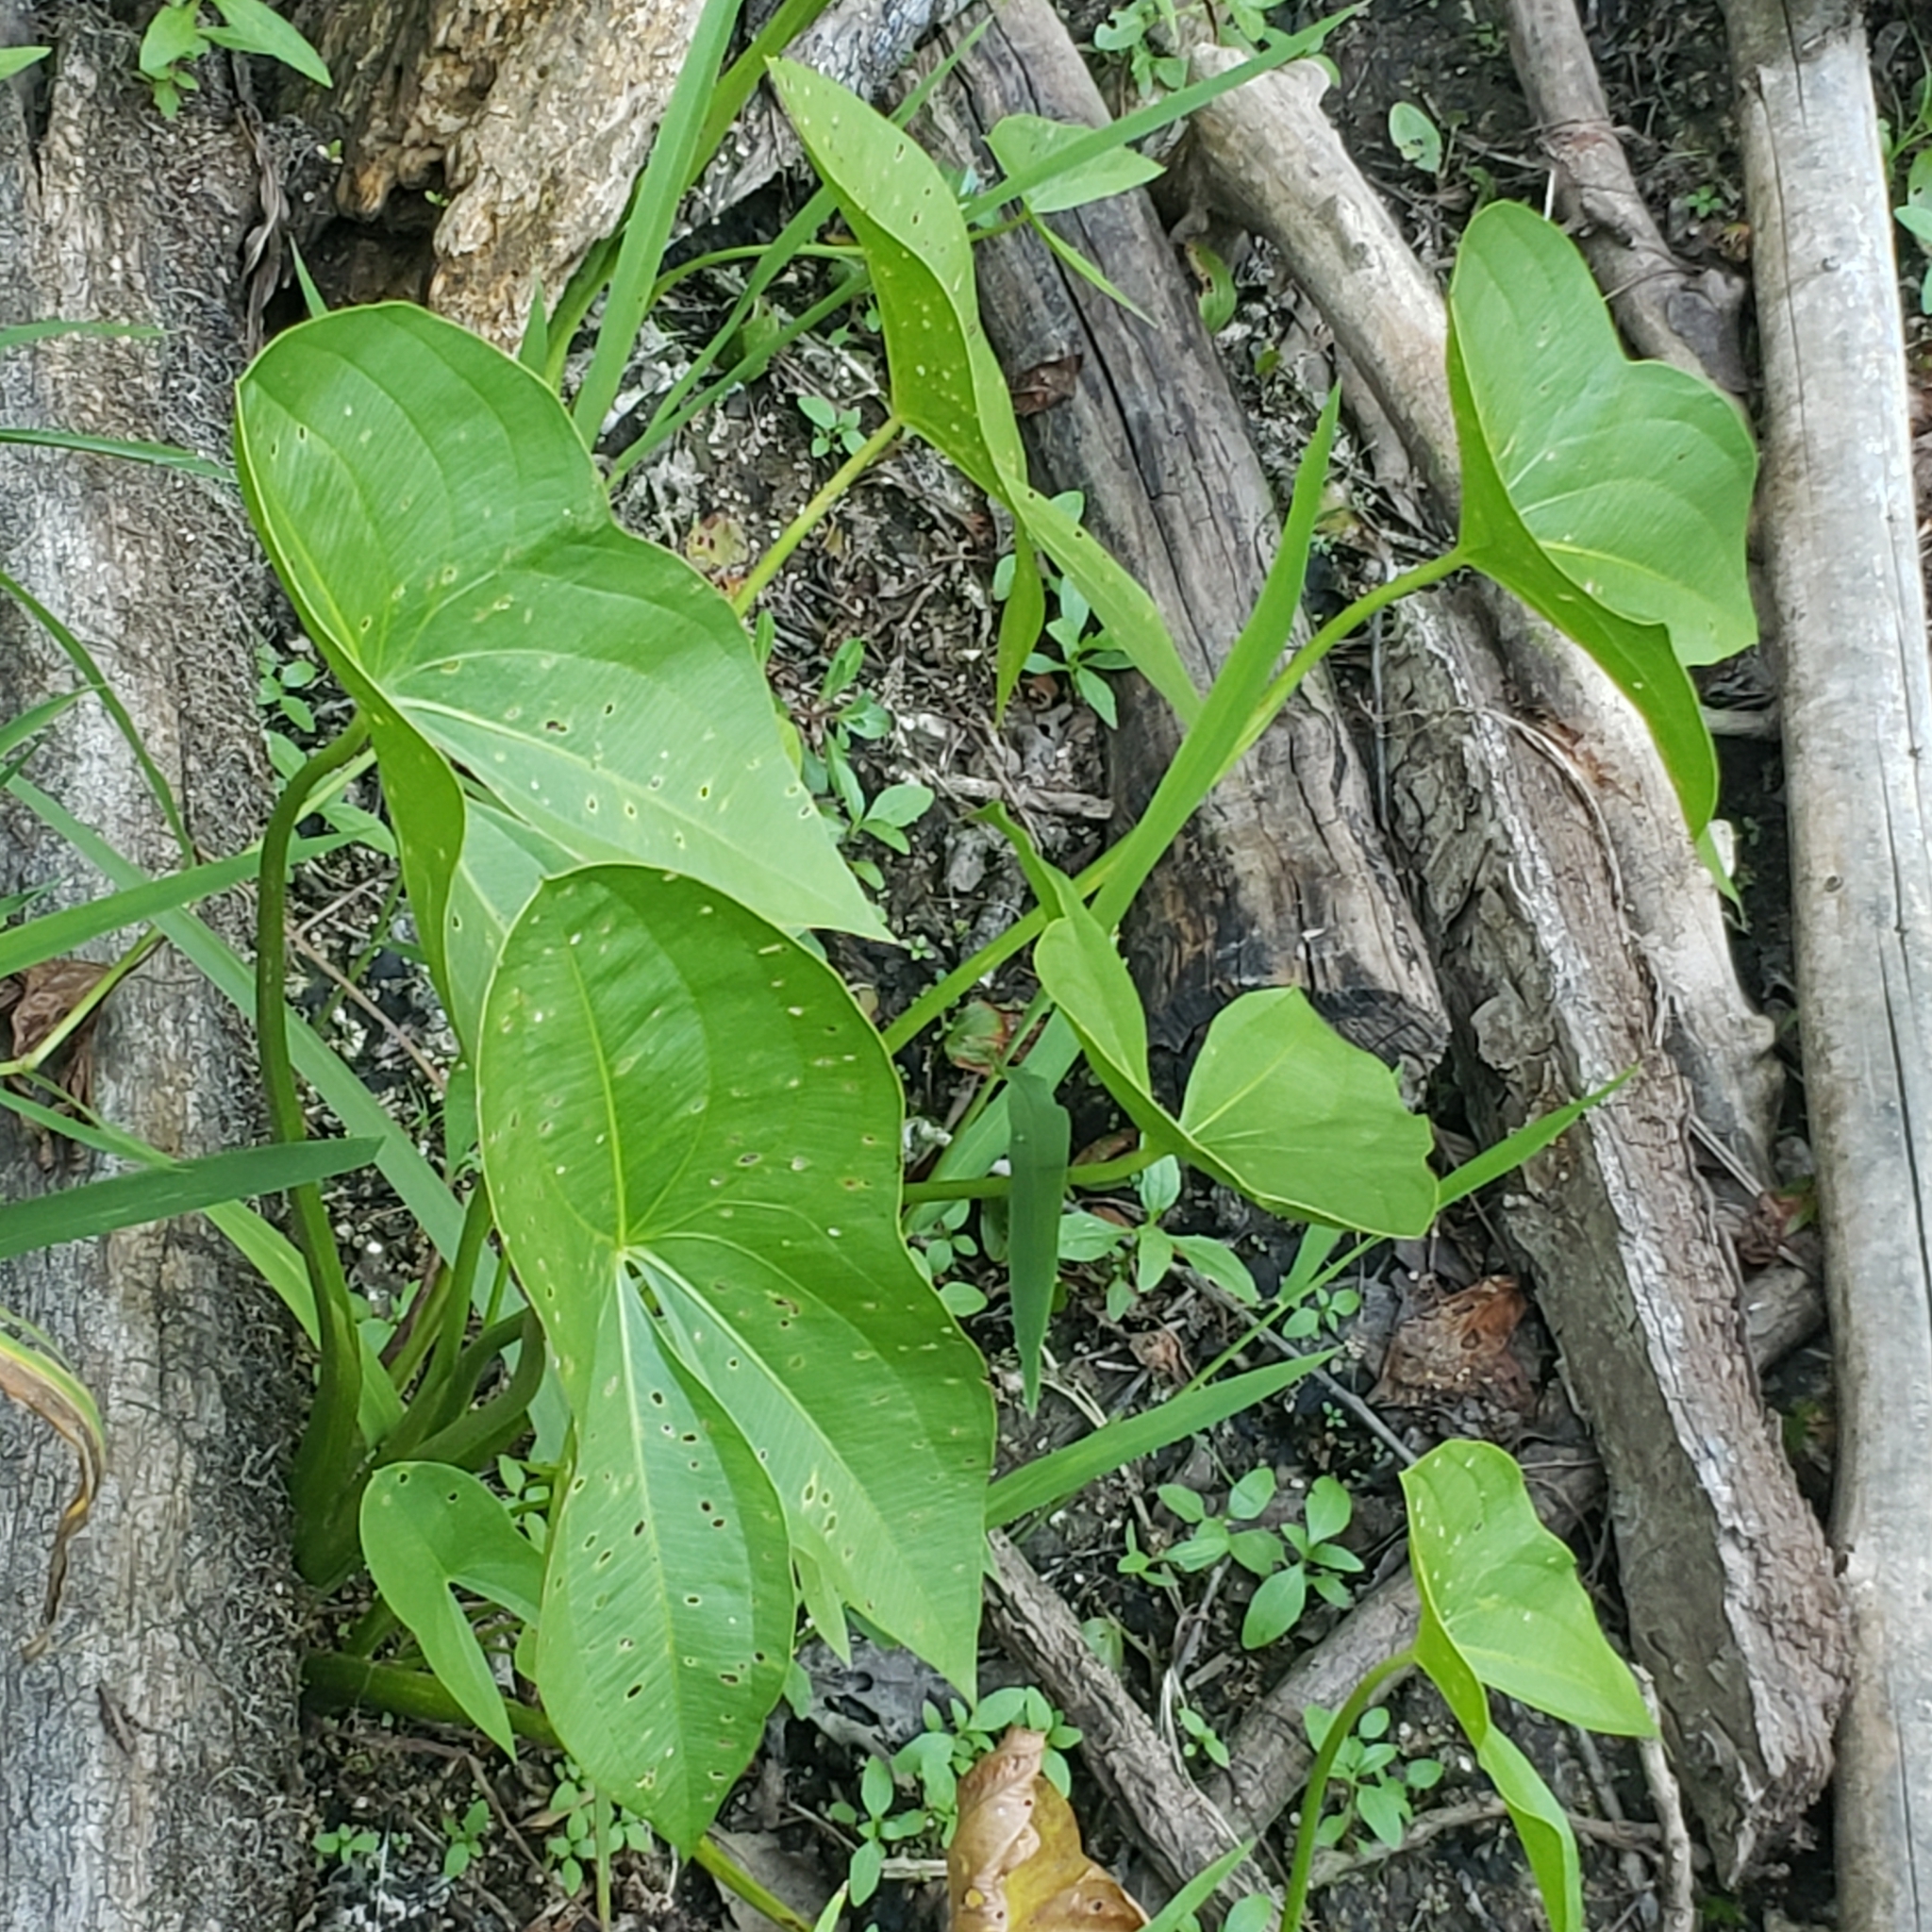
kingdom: Plantae
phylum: Tracheophyta
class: Liliopsida
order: Alismatales
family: Alismataceae
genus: Sagittaria
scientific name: Sagittaria
